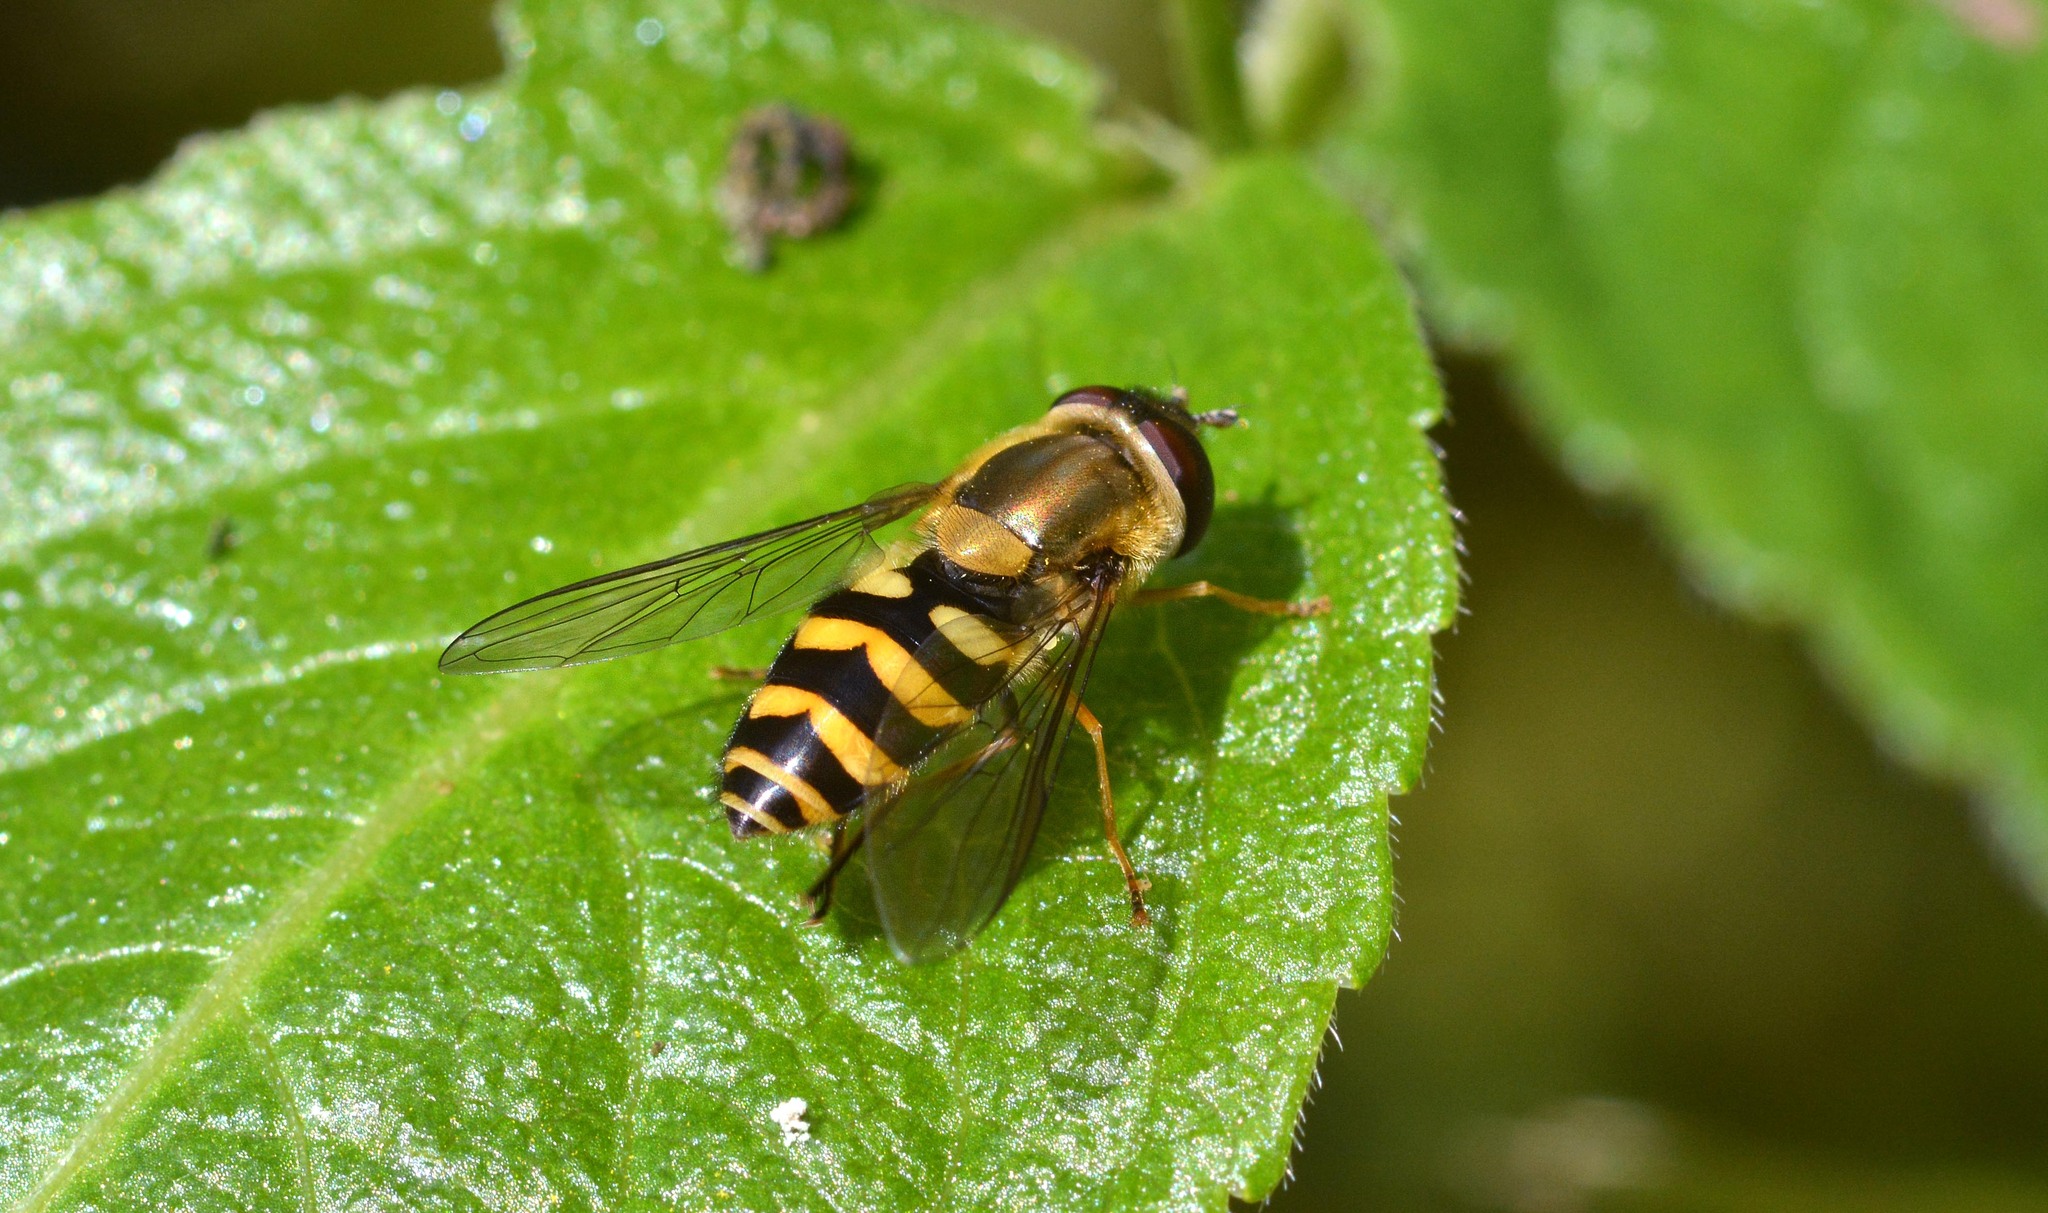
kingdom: Animalia
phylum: Arthropoda
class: Insecta
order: Diptera
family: Syrphidae
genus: Syrphus
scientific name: Syrphus
